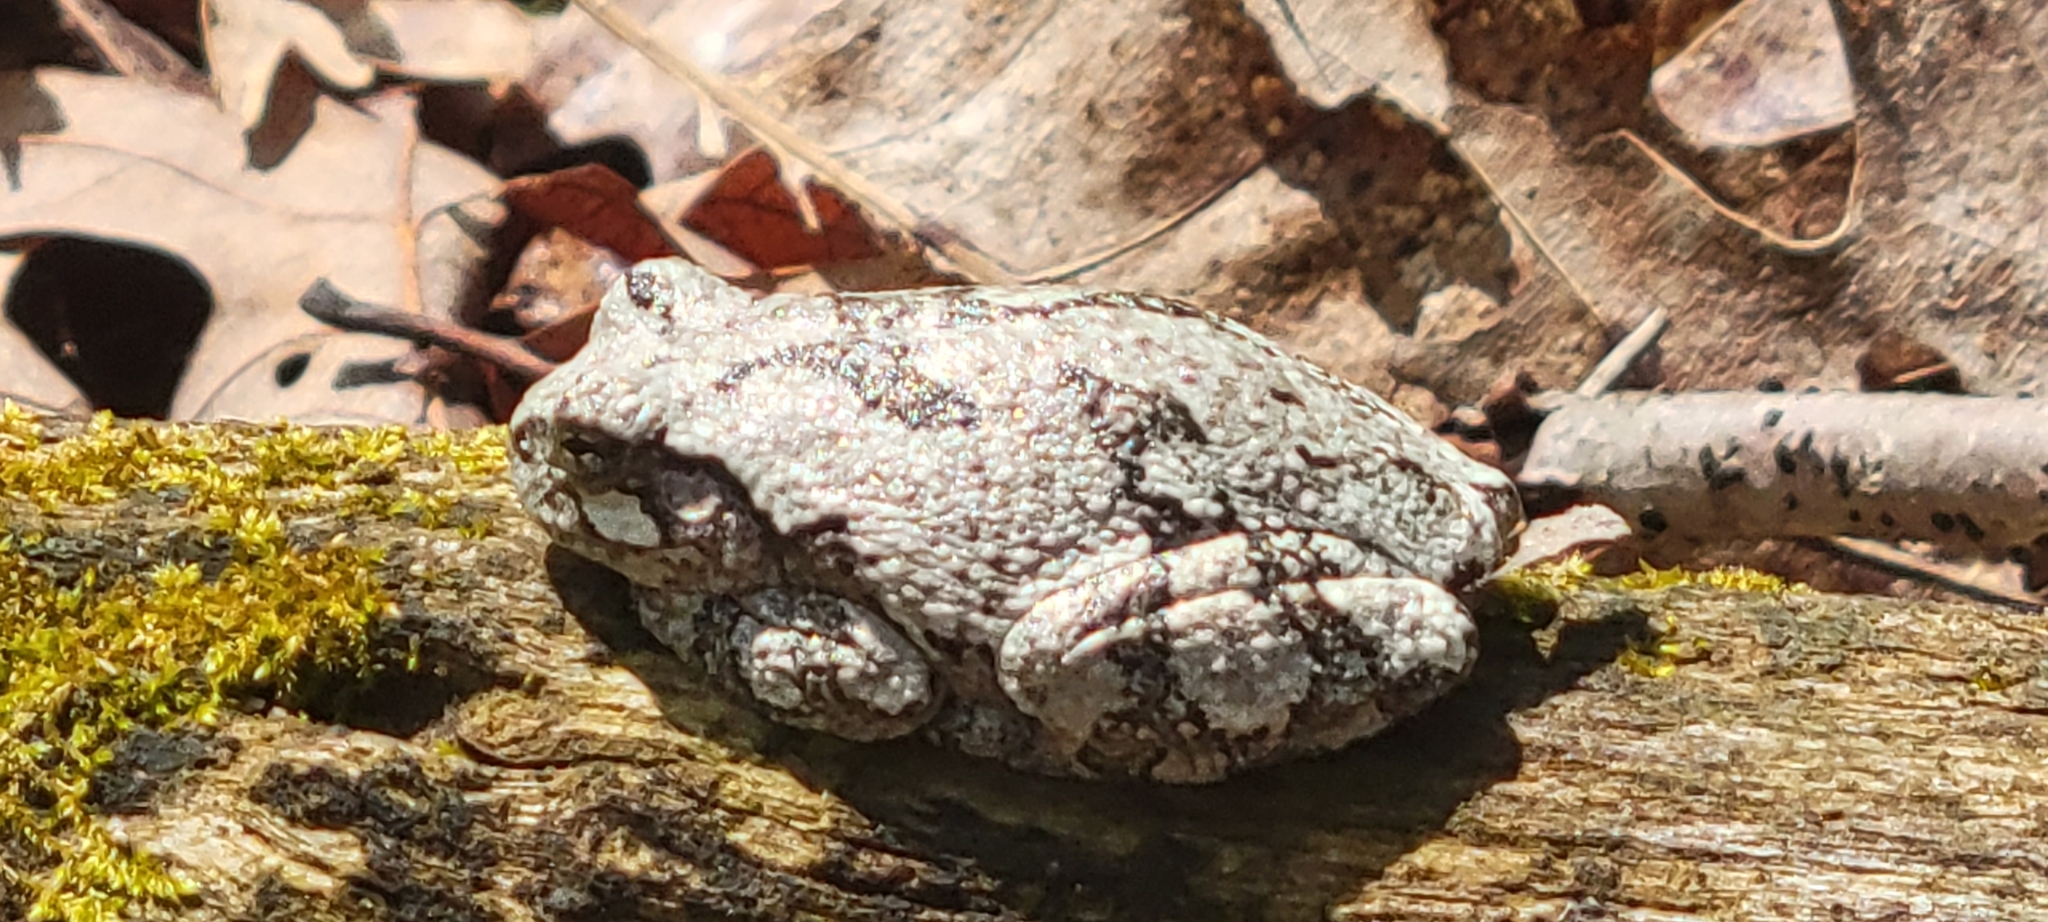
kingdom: Animalia
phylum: Chordata
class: Amphibia
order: Anura
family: Hylidae
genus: Hyla
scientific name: Hyla
